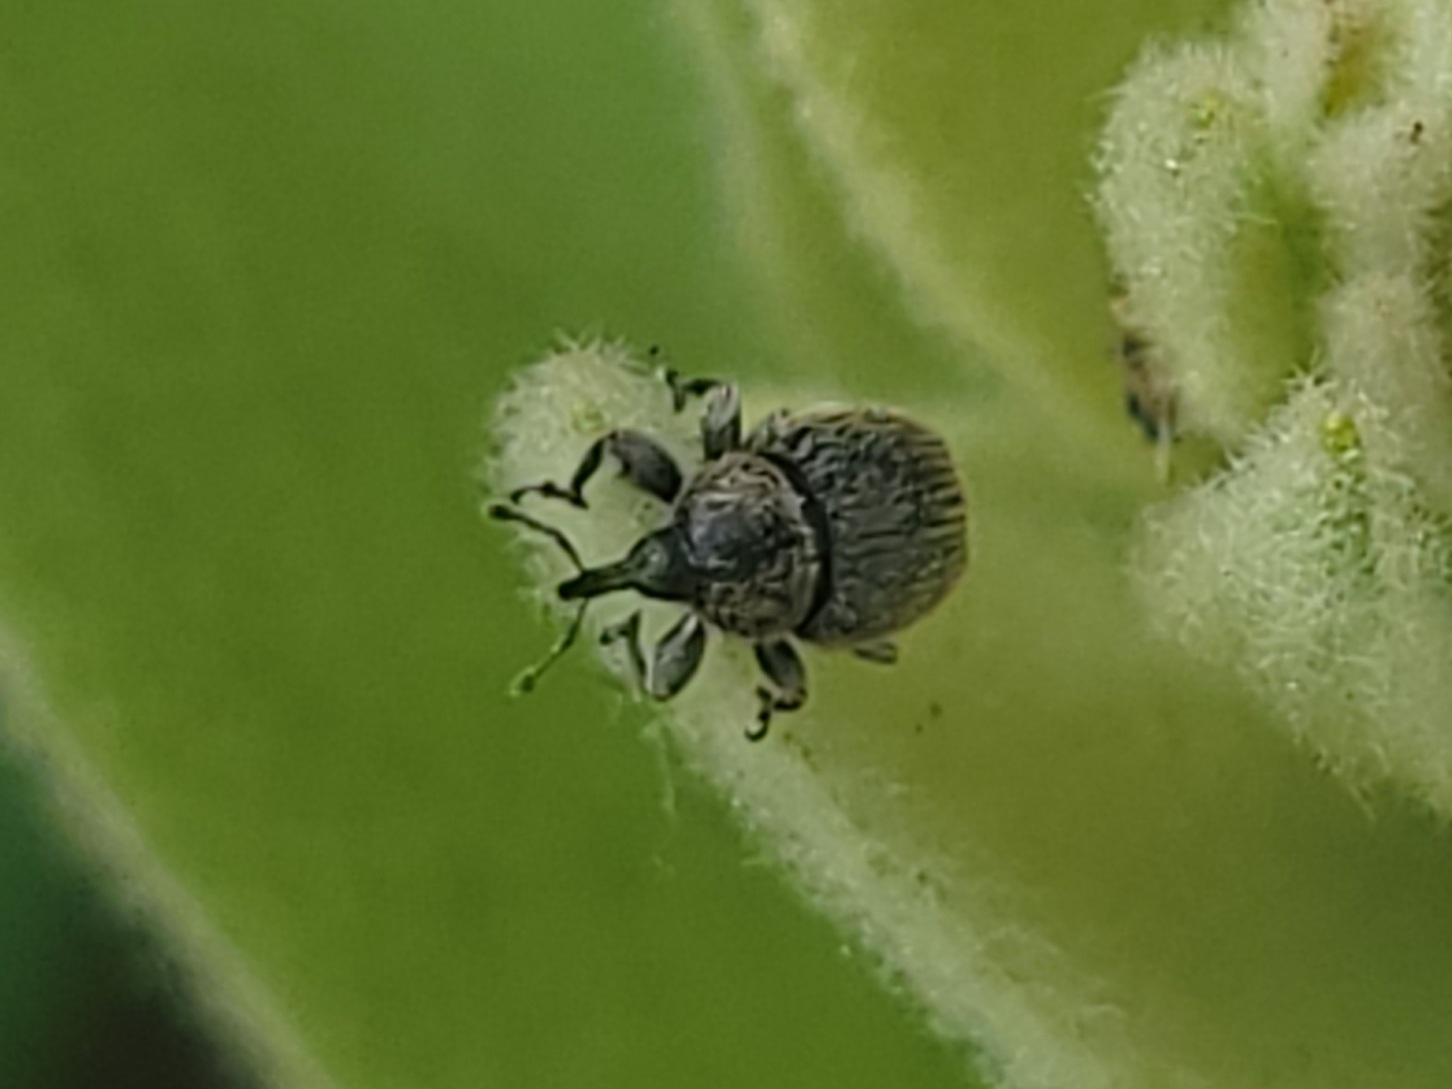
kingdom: Animalia
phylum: Arthropoda
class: Insecta
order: Coleoptera
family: Curculionidae
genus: Rhinusa
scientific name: Rhinusa tetra
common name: Weevil
